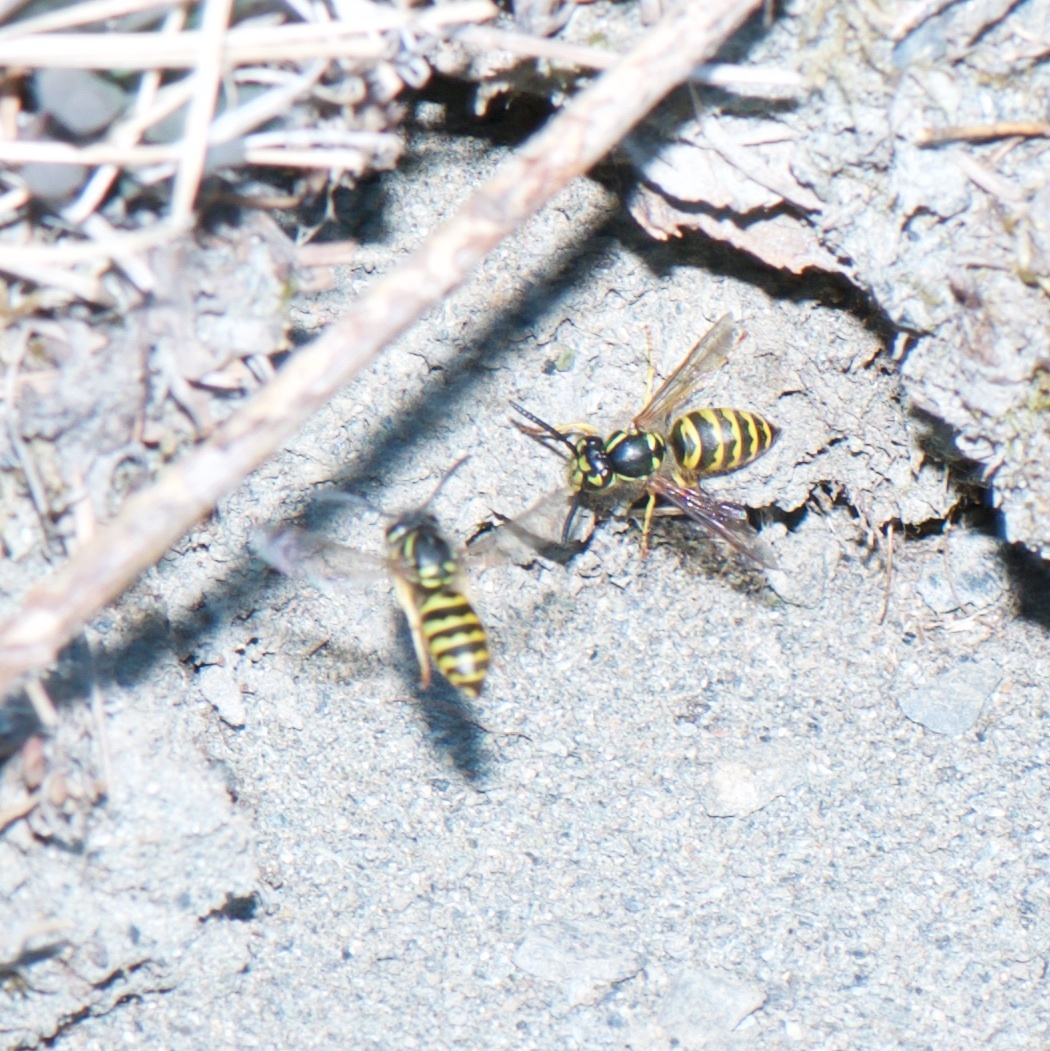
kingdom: Animalia
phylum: Arthropoda
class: Insecta
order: Hymenoptera
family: Vespidae
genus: Vespula
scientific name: Vespula alascensis
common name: Alaska yellowjacket
